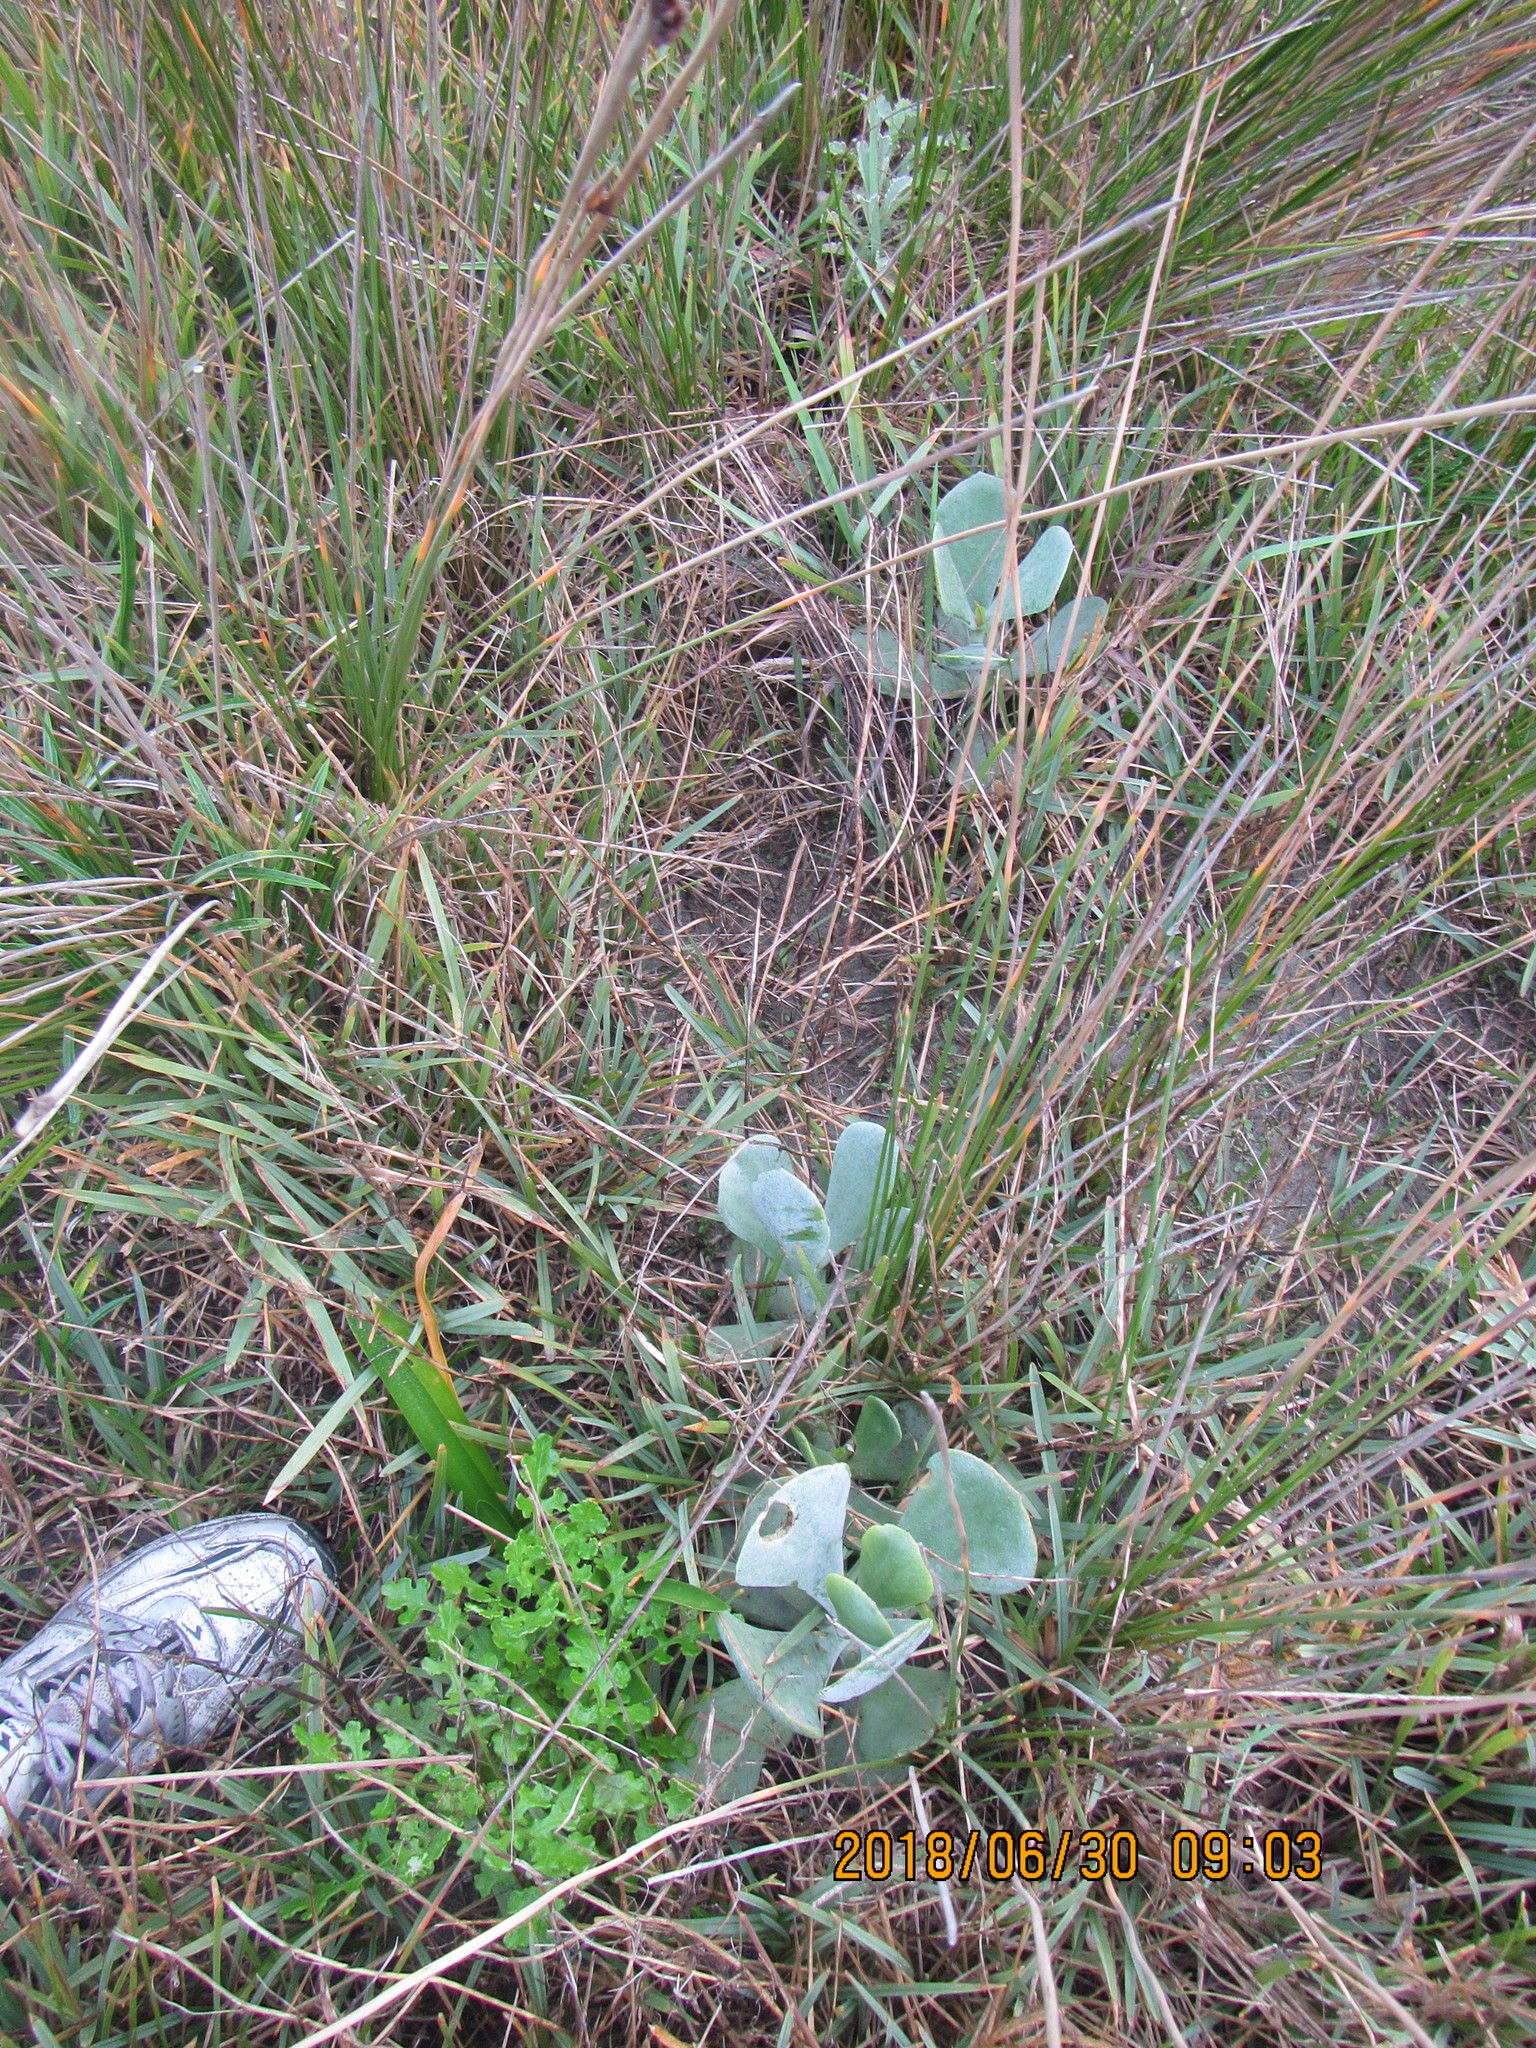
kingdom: Plantae
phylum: Tracheophyta
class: Magnoliopsida
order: Saxifragales
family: Crassulaceae
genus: Cotyledon
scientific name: Cotyledon orbiculata
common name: Pig's ear
